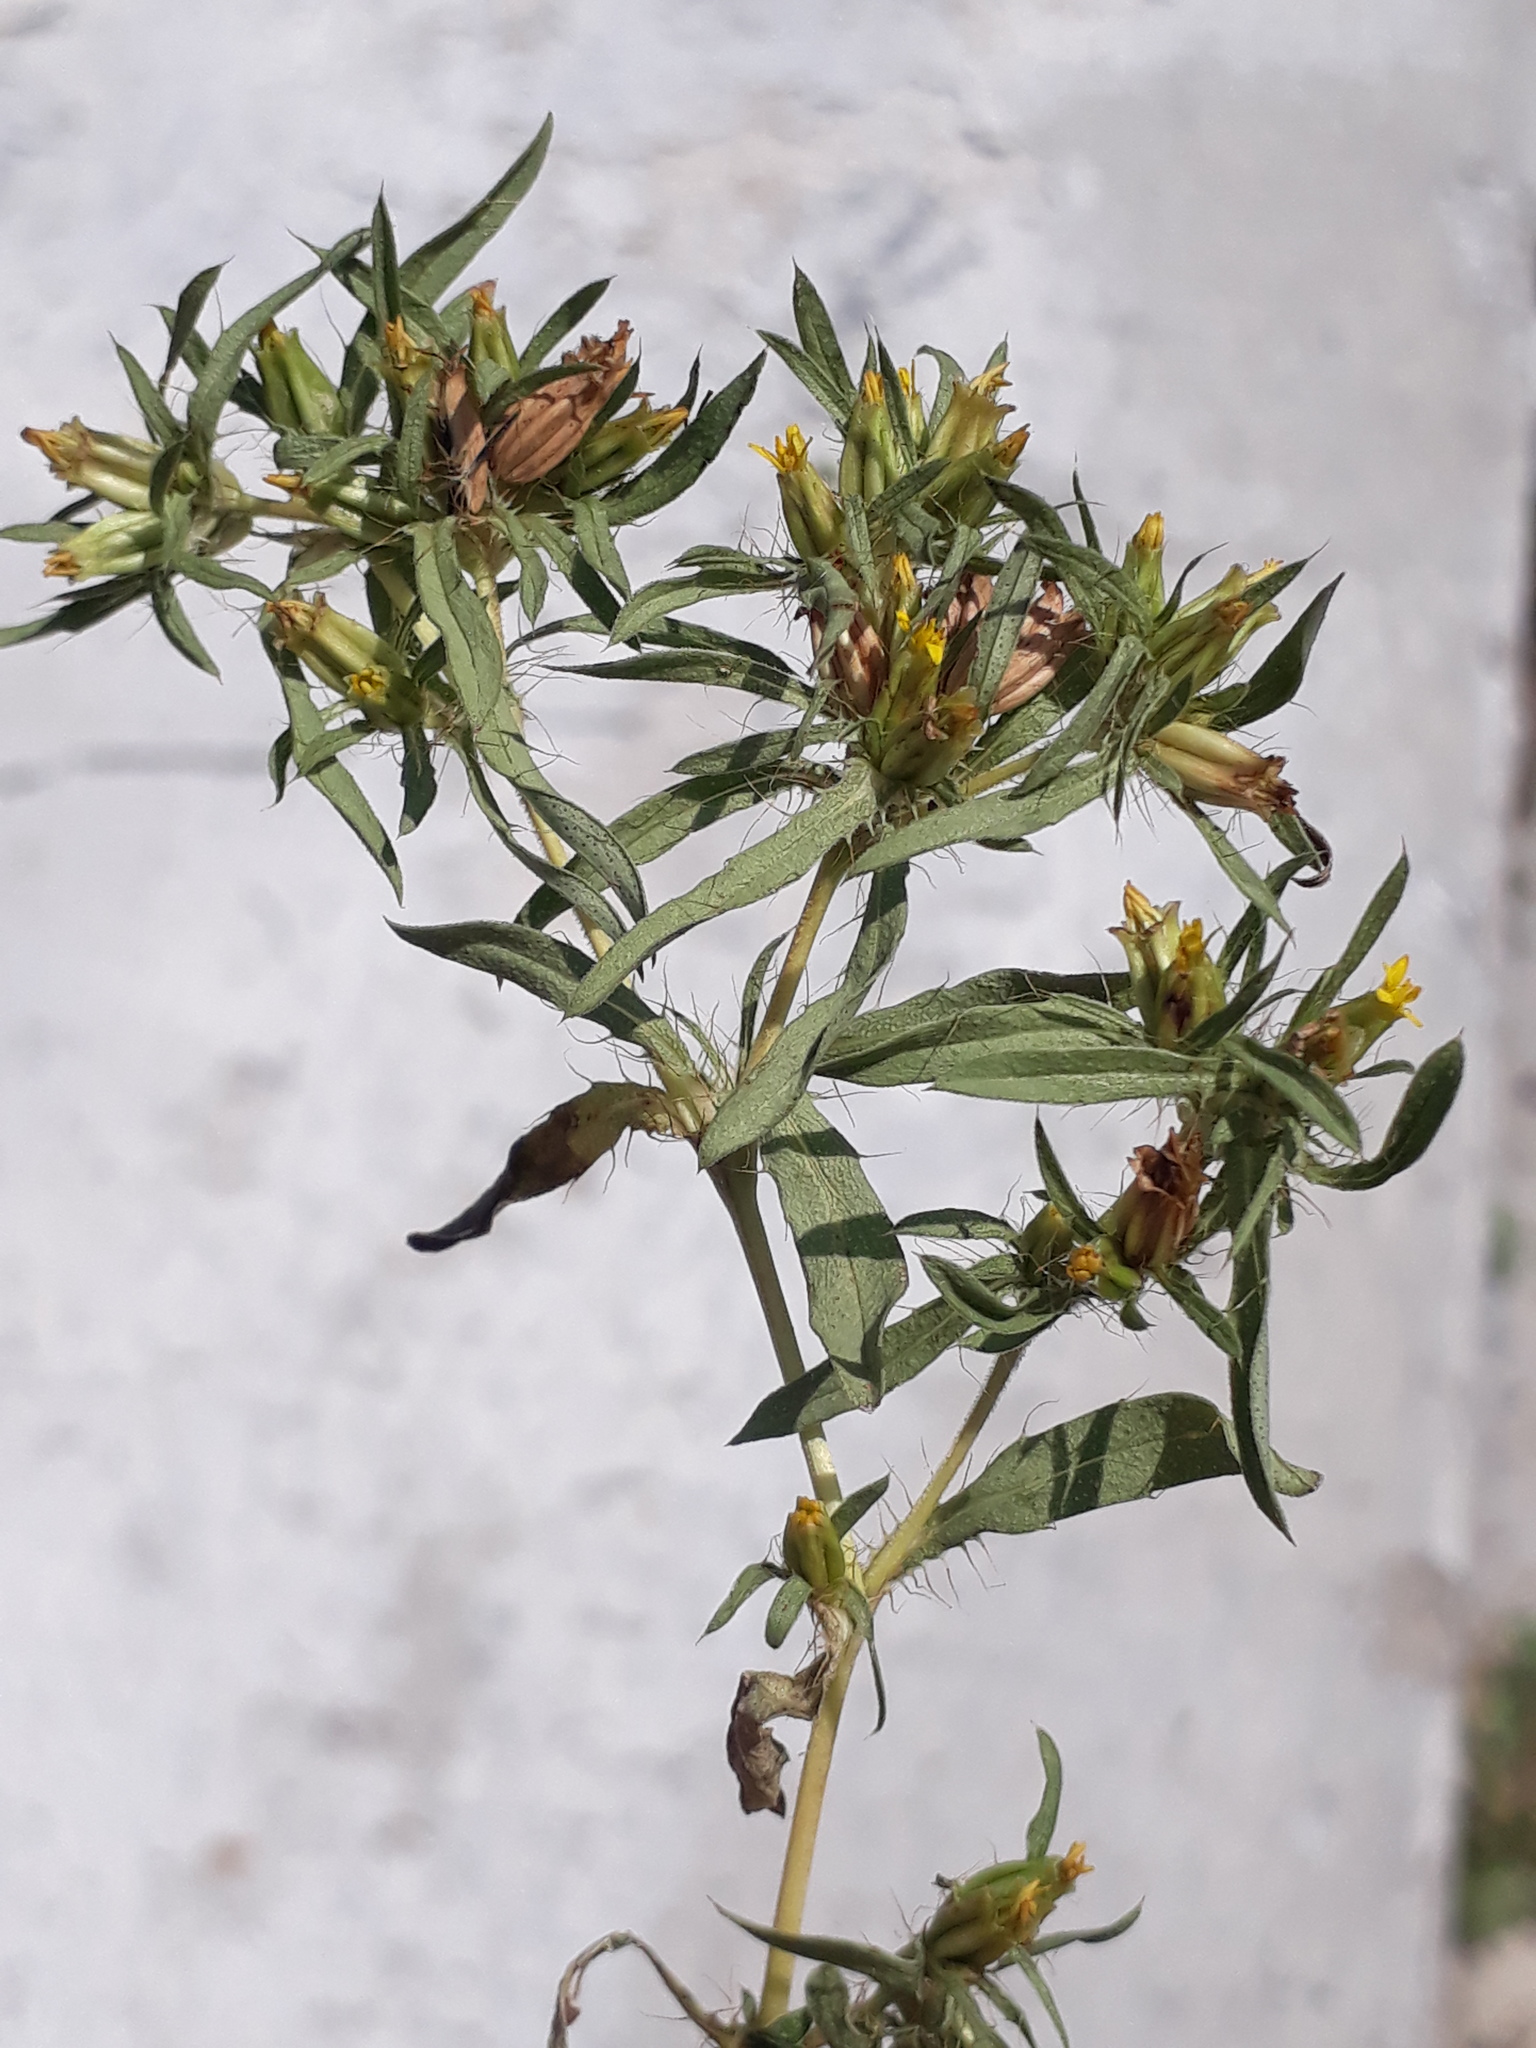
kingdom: Plantae
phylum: Tracheophyta
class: Magnoliopsida
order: Asterales
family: Asteraceae
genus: Pectis
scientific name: Pectis prostrata
